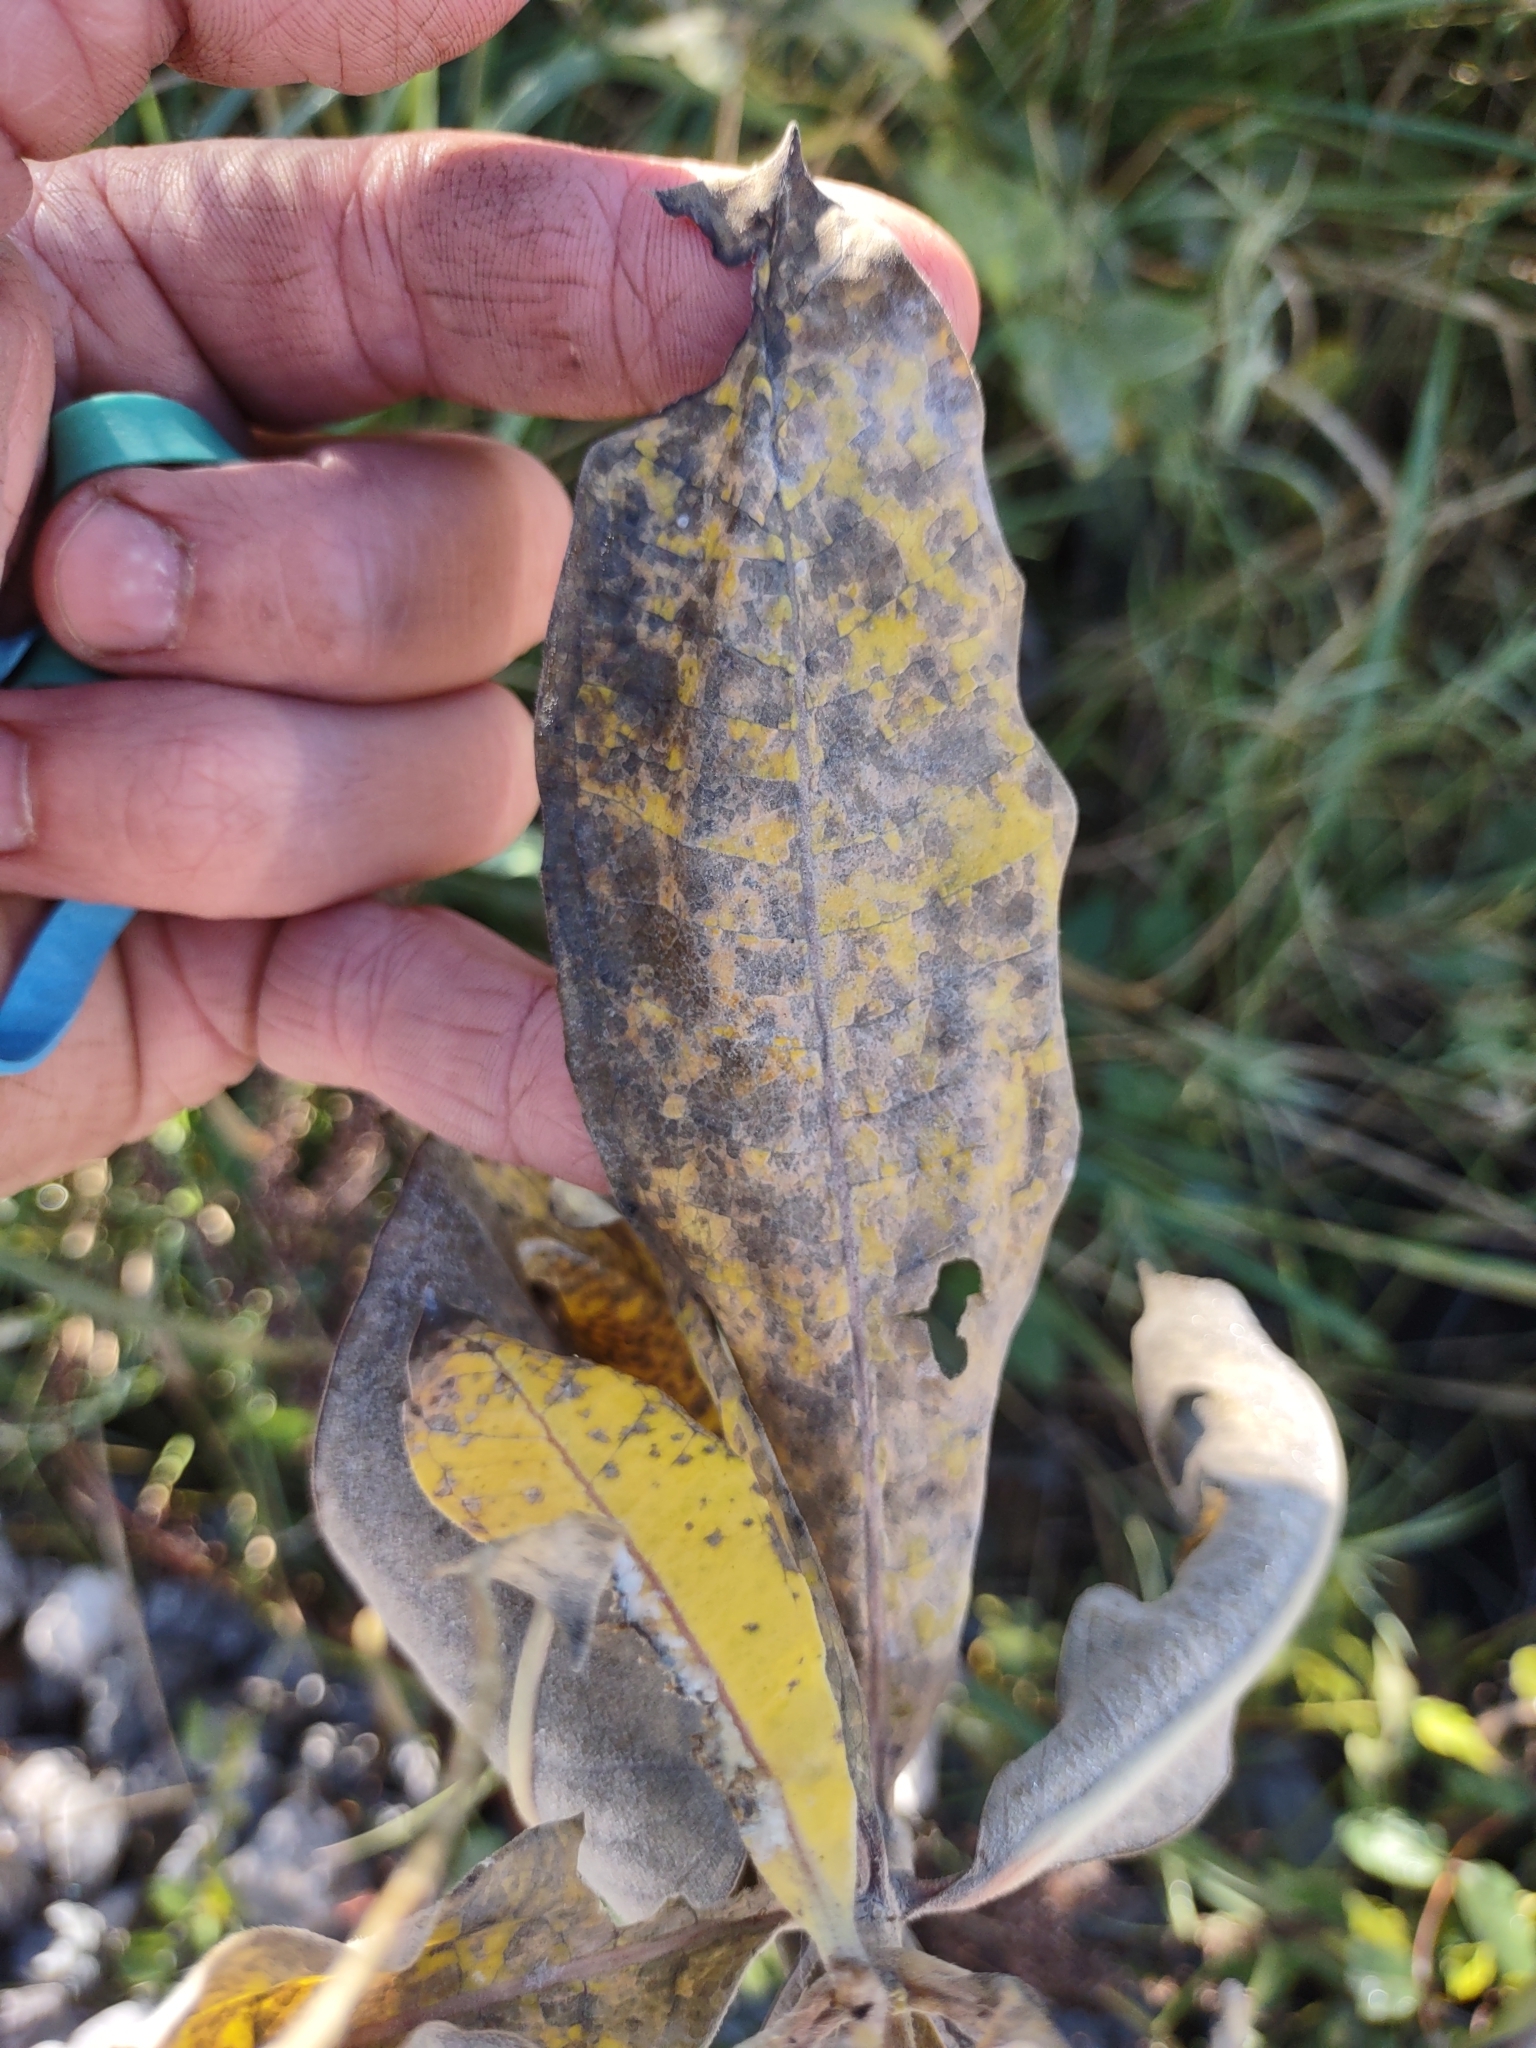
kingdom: Plantae
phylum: Tracheophyta
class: Magnoliopsida
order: Gentianales
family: Apocynaceae
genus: Asclepias
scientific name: Asclepias syriaca
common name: Common milkweed
